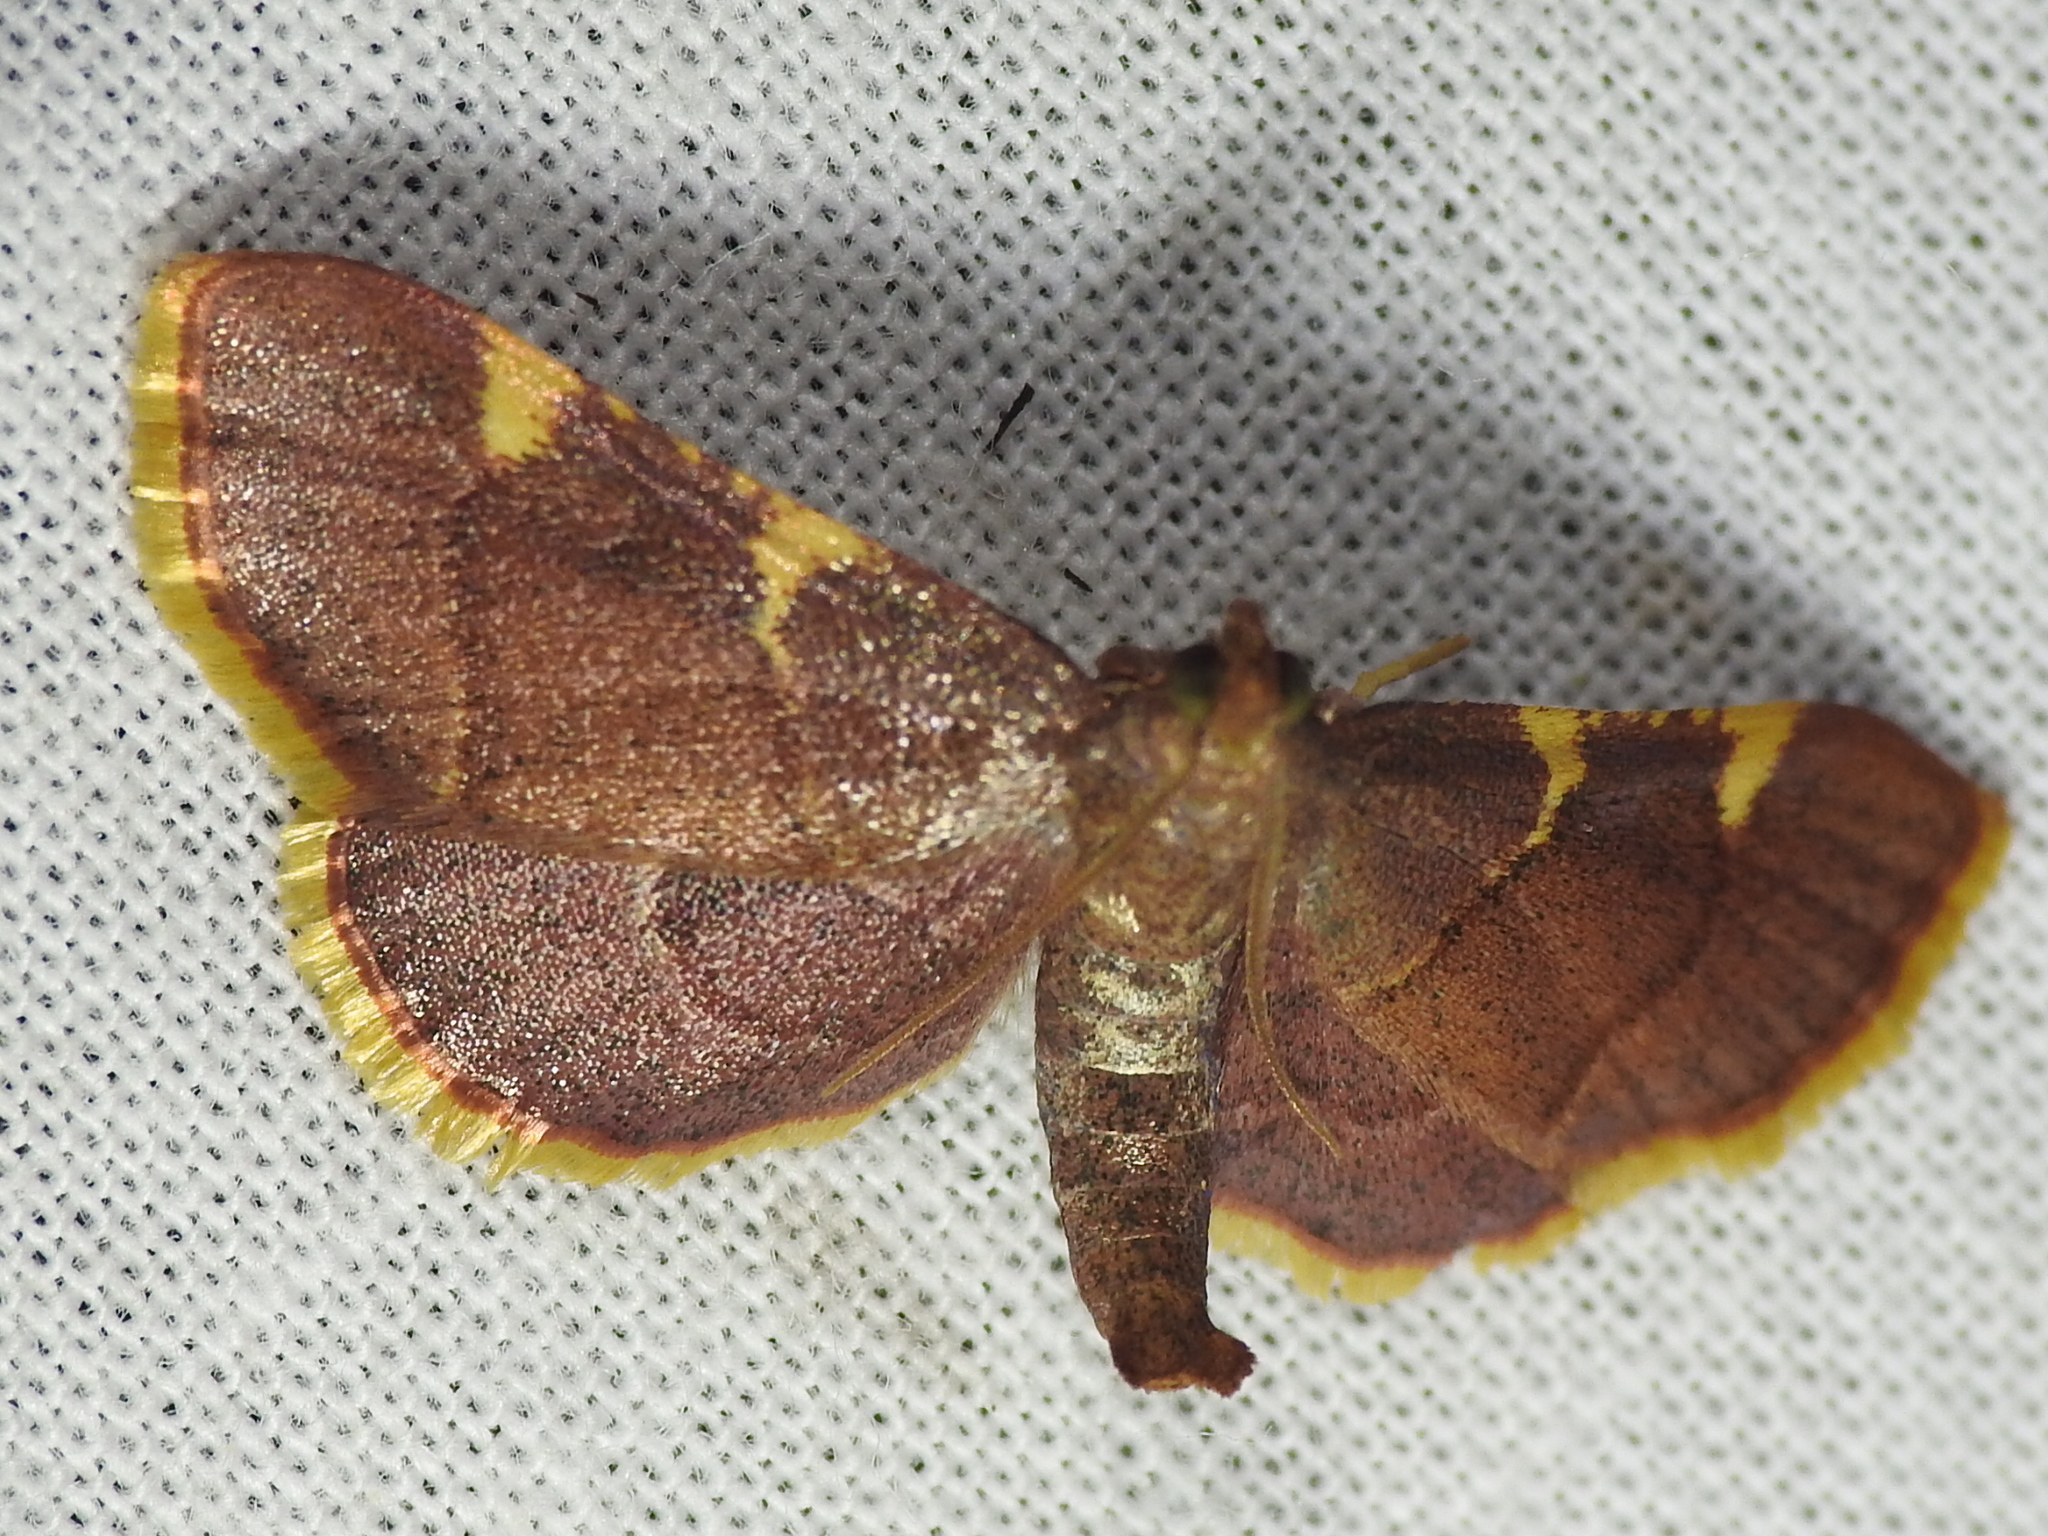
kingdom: Animalia
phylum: Arthropoda
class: Insecta
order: Lepidoptera
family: Pyralidae
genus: Hypsopygia
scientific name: Hypsopygia olinalis
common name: Yellow-fringed dolichomia moth
